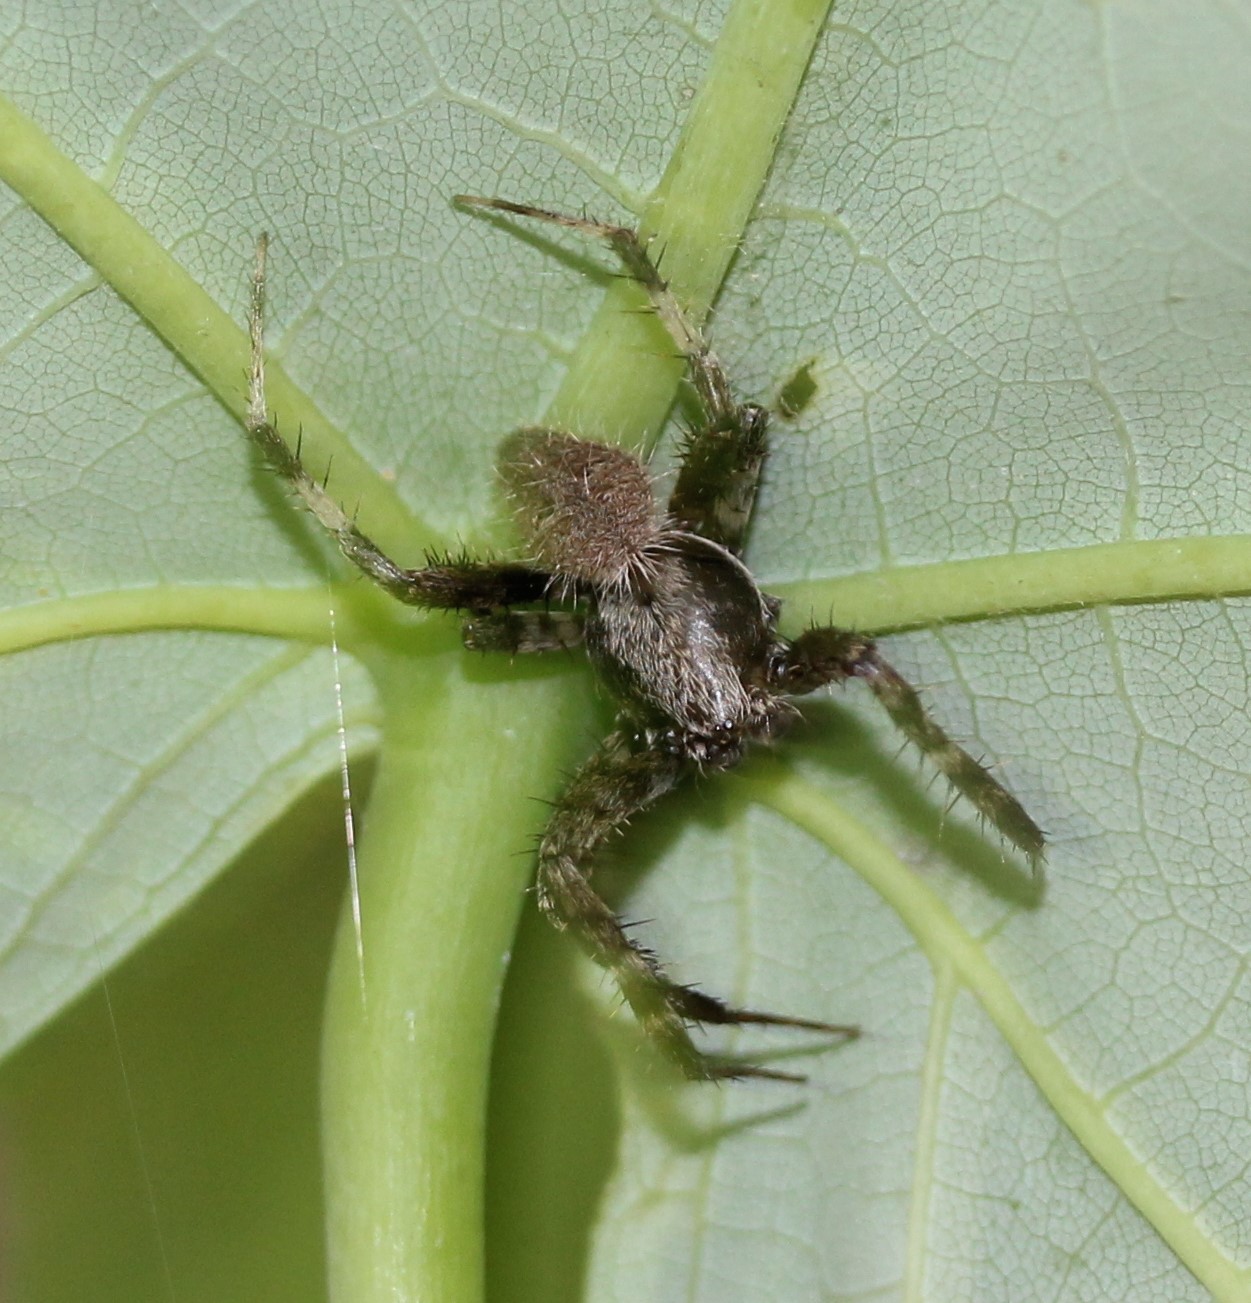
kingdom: Animalia
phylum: Arthropoda
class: Arachnida
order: Araneae
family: Araneidae
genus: Neoscona
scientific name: Neoscona crucifera
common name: Spotted orbweaver
